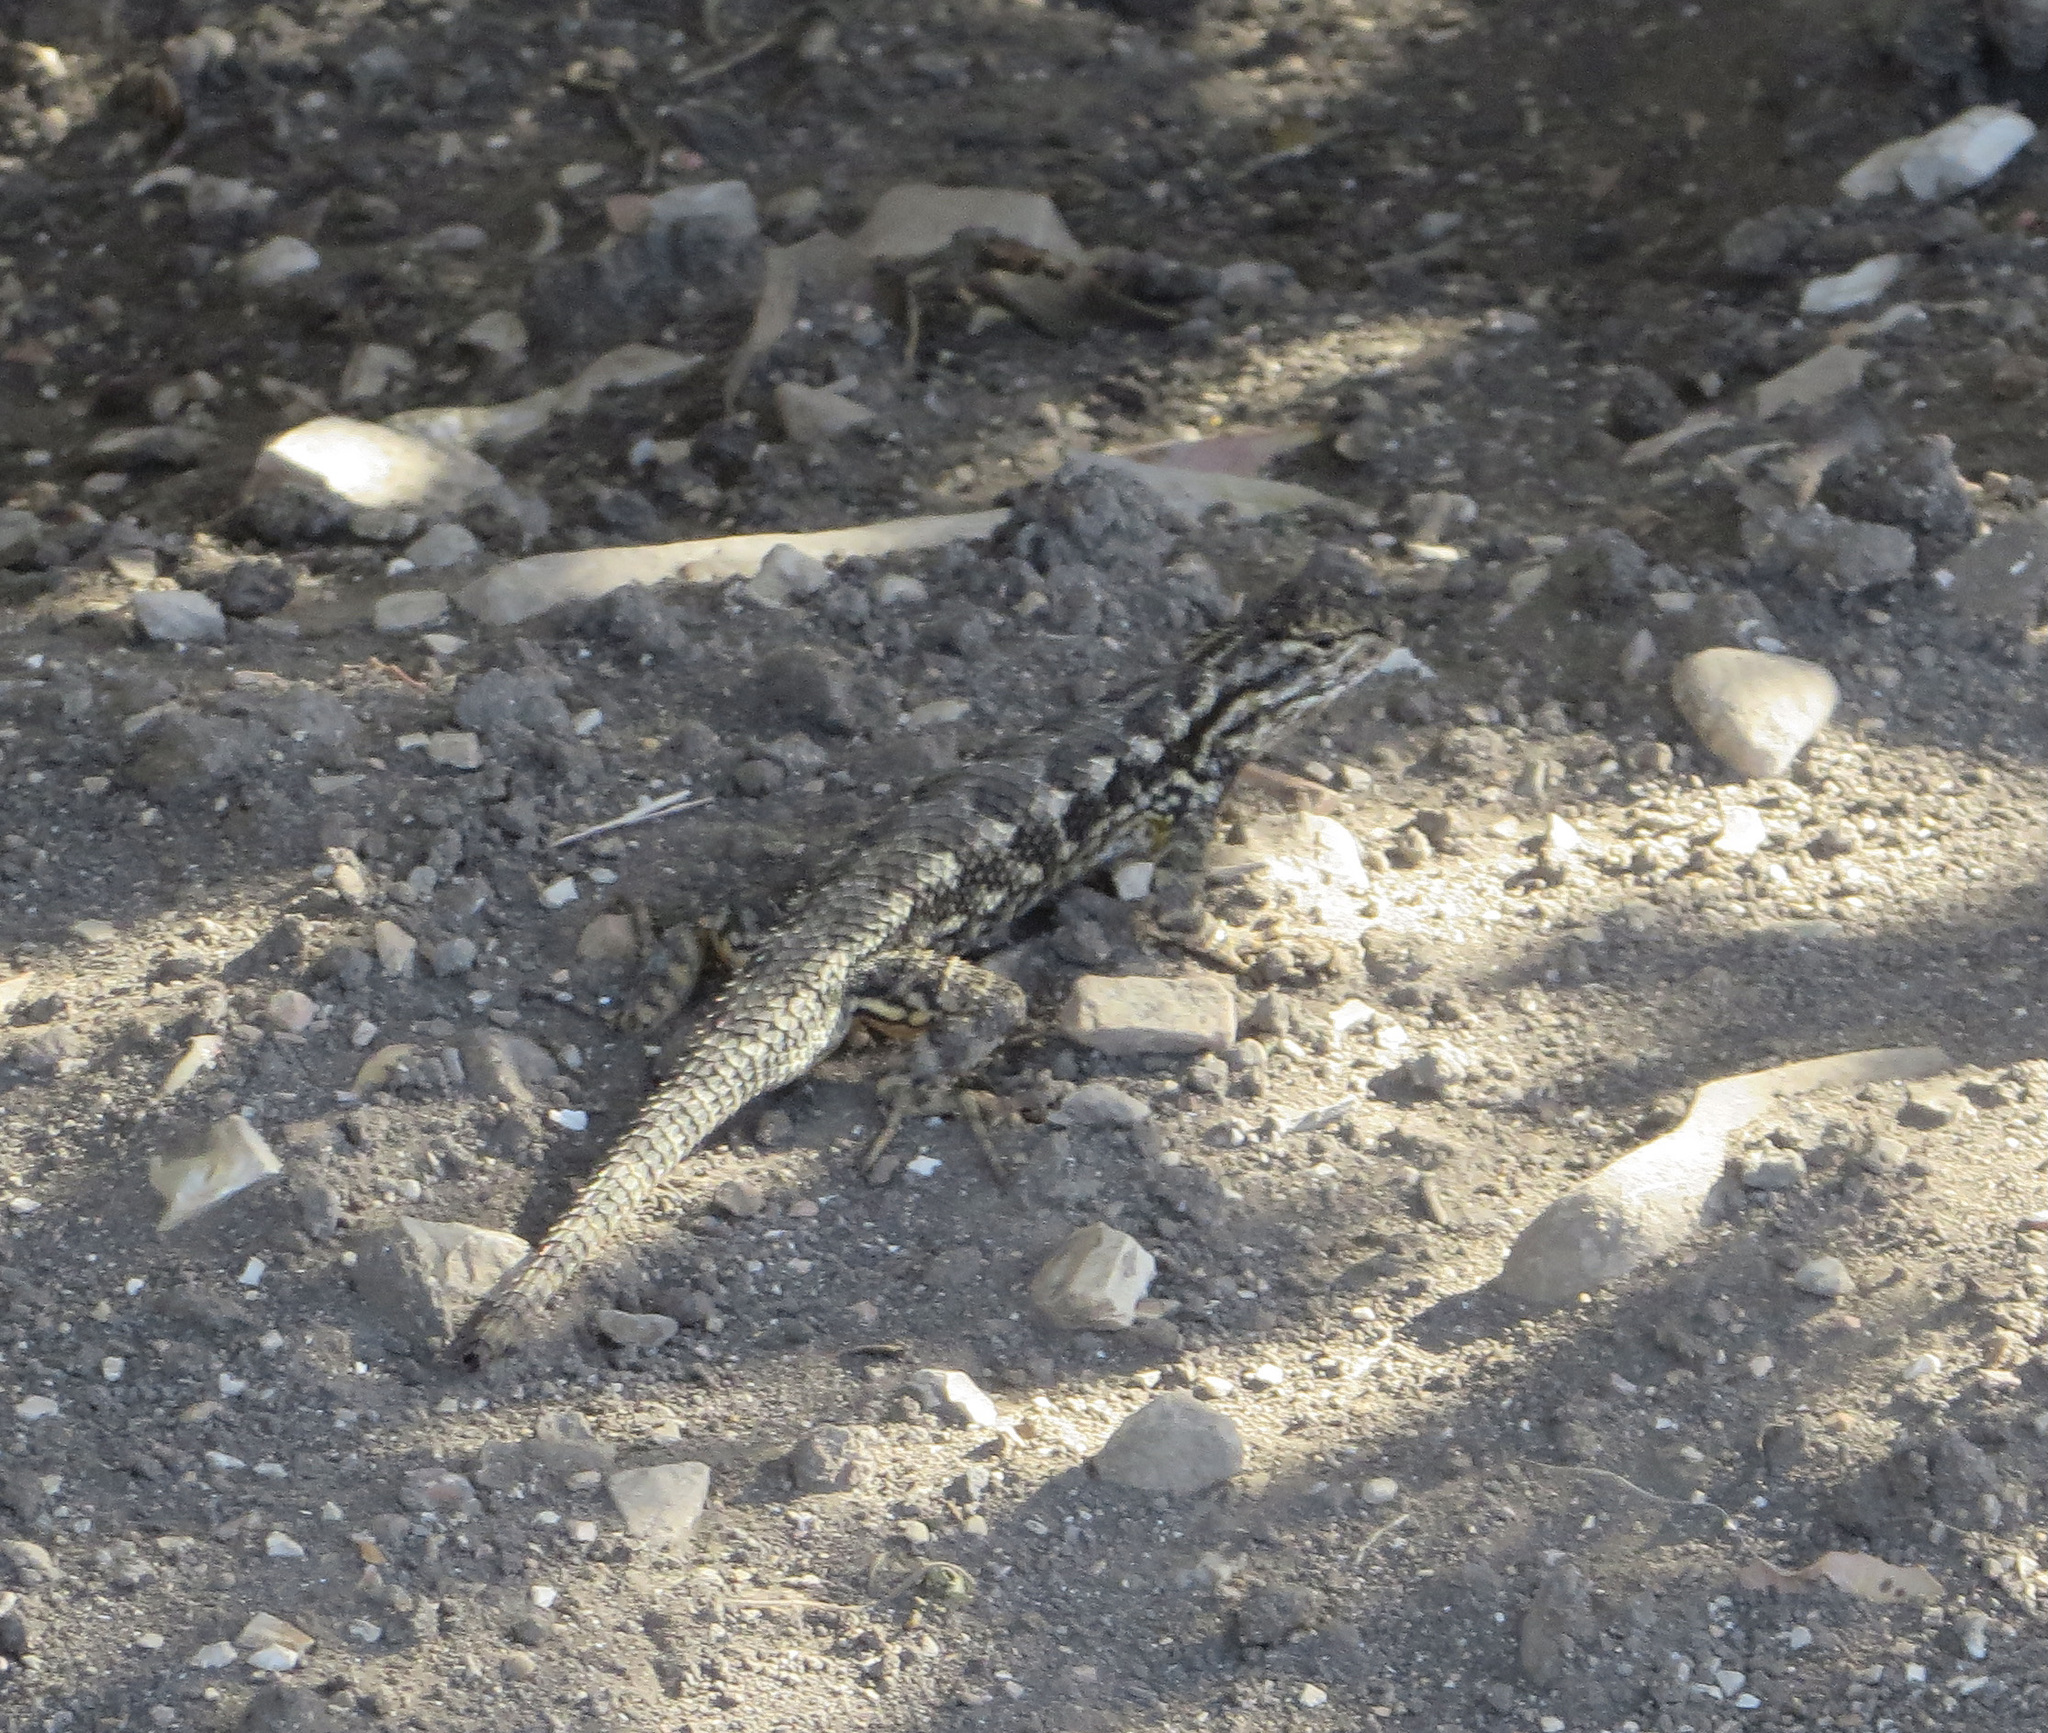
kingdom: Animalia
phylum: Chordata
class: Squamata
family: Phrynosomatidae
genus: Sceloporus
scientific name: Sceloporus occidentalis
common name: Western fence lizard
